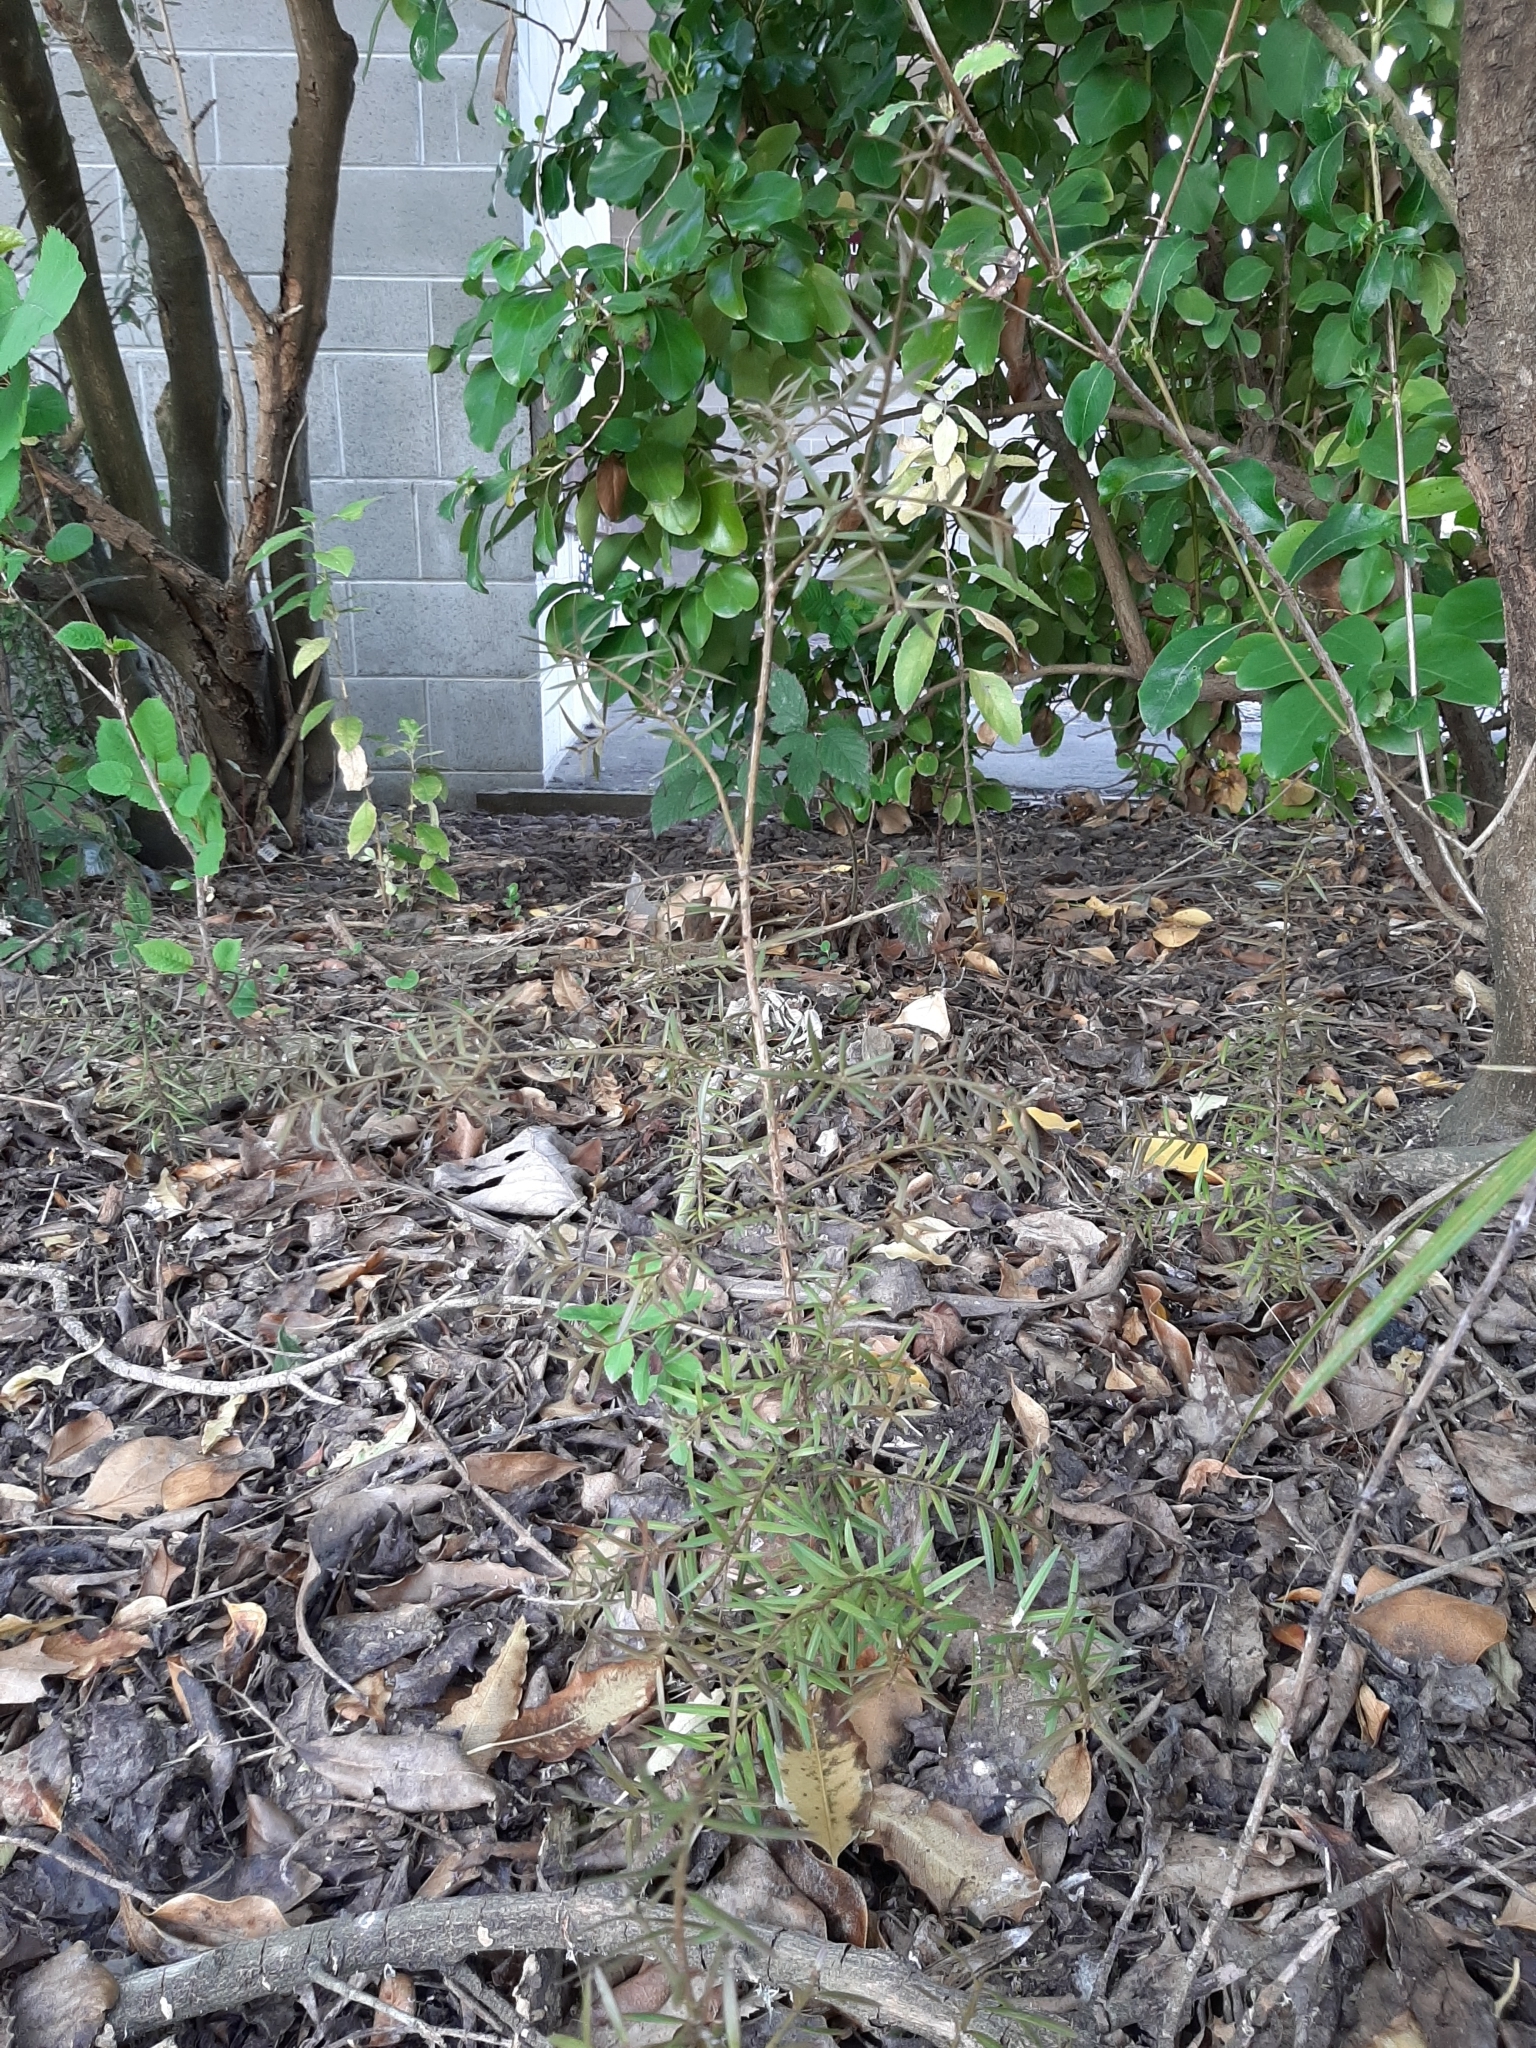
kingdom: Plantae
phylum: Tracheophyta
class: Pinopsida
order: Pinales
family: Podocarpaceae
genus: Podocarpus
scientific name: Podocarpus totara
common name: Totara
